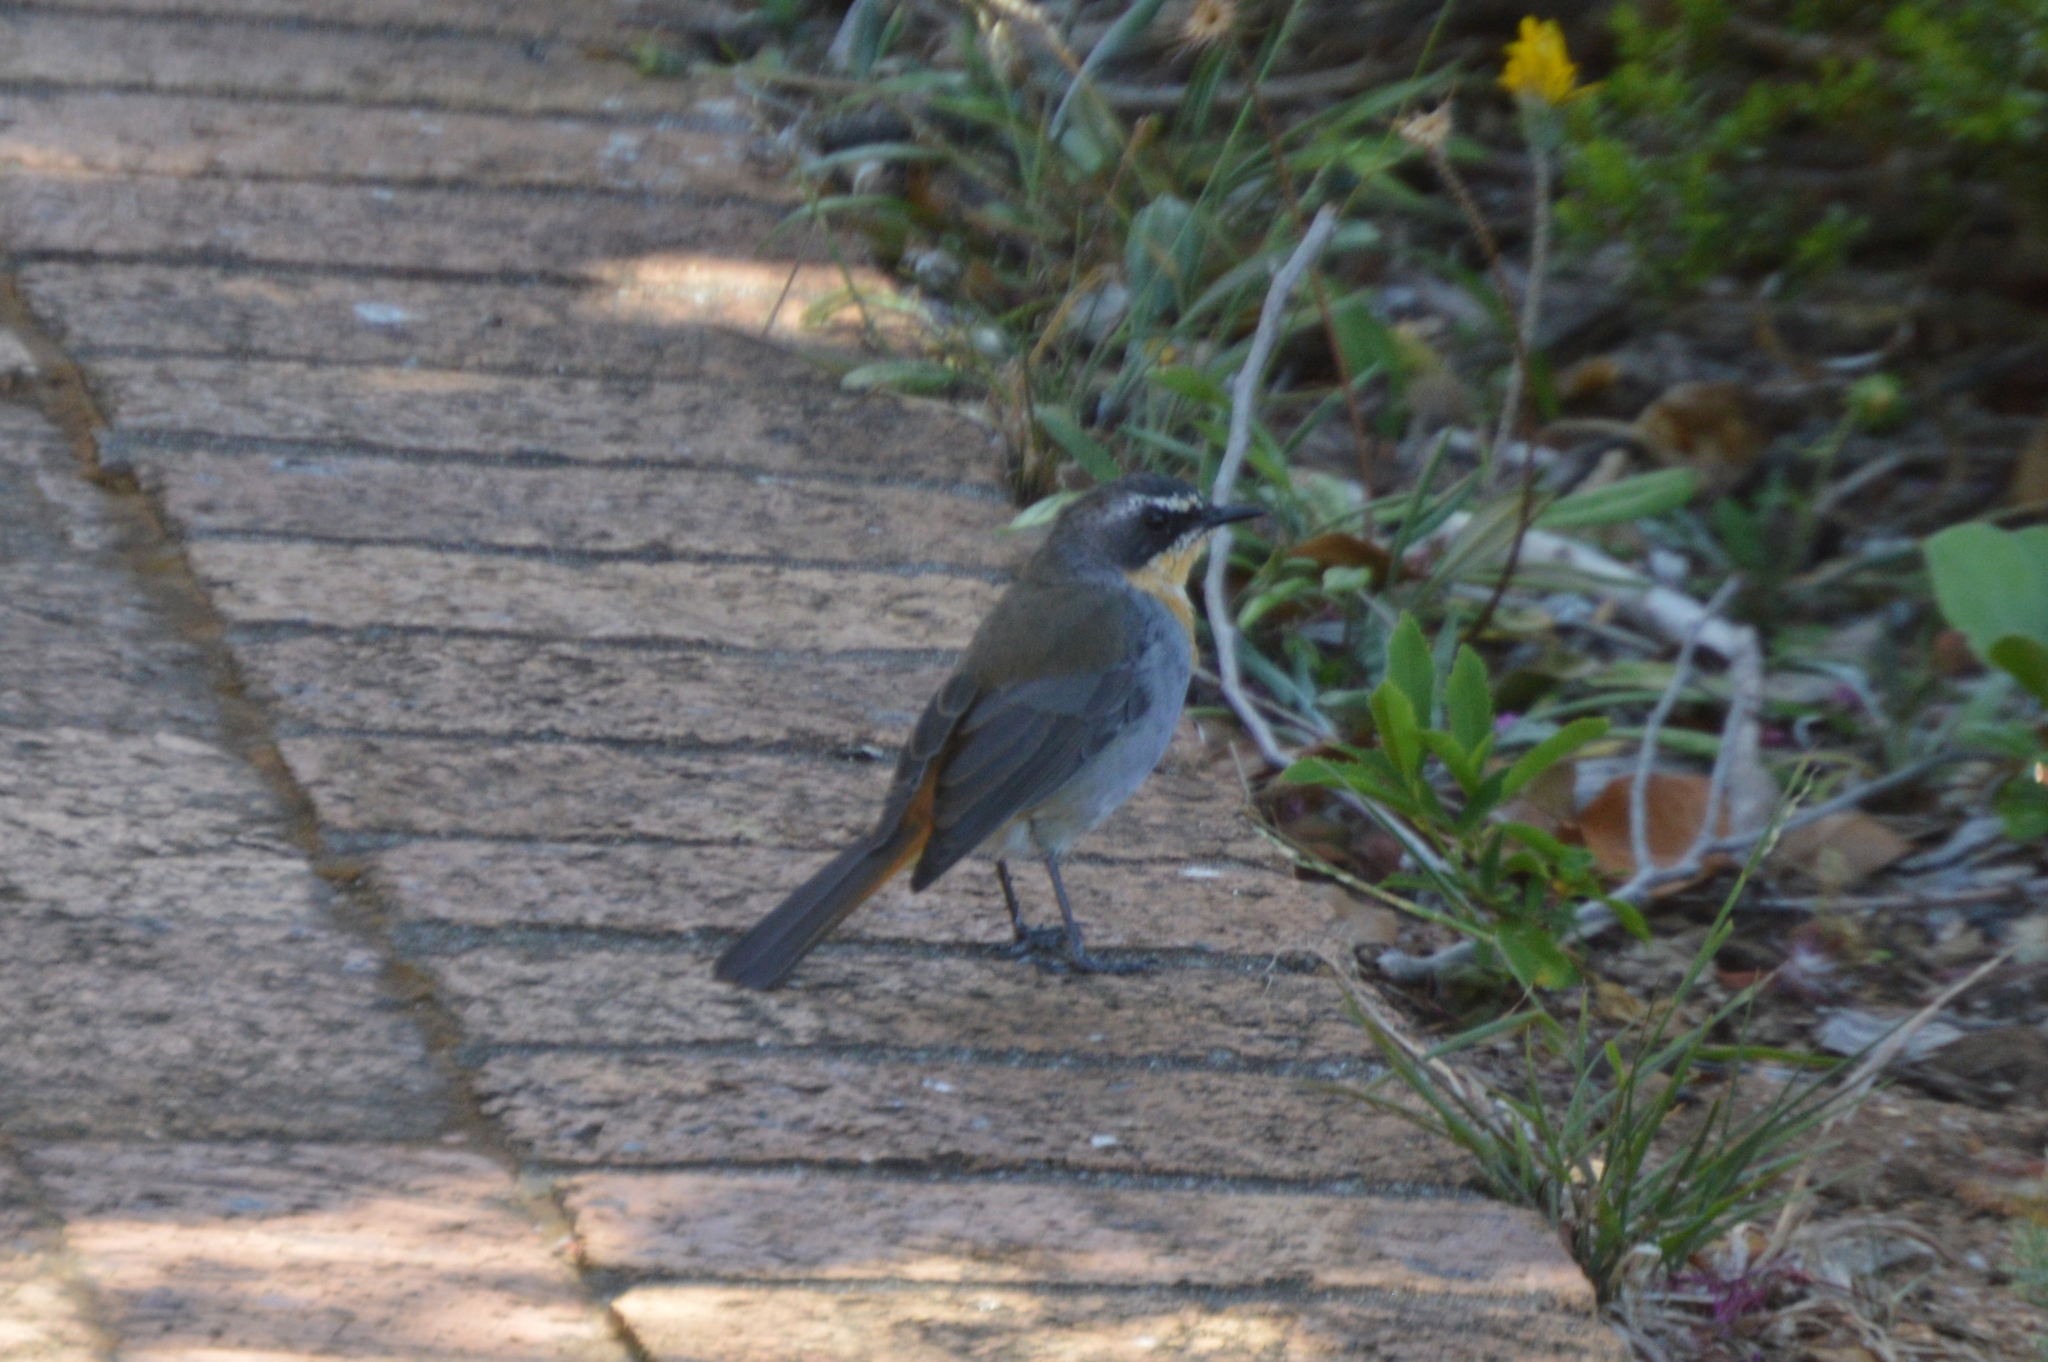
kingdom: Animalia
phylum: Chordata
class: Aves
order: Passeriformes
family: Muscicapidae
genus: Cossypha
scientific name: Cossypha caffra
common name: Cape robin-chat
